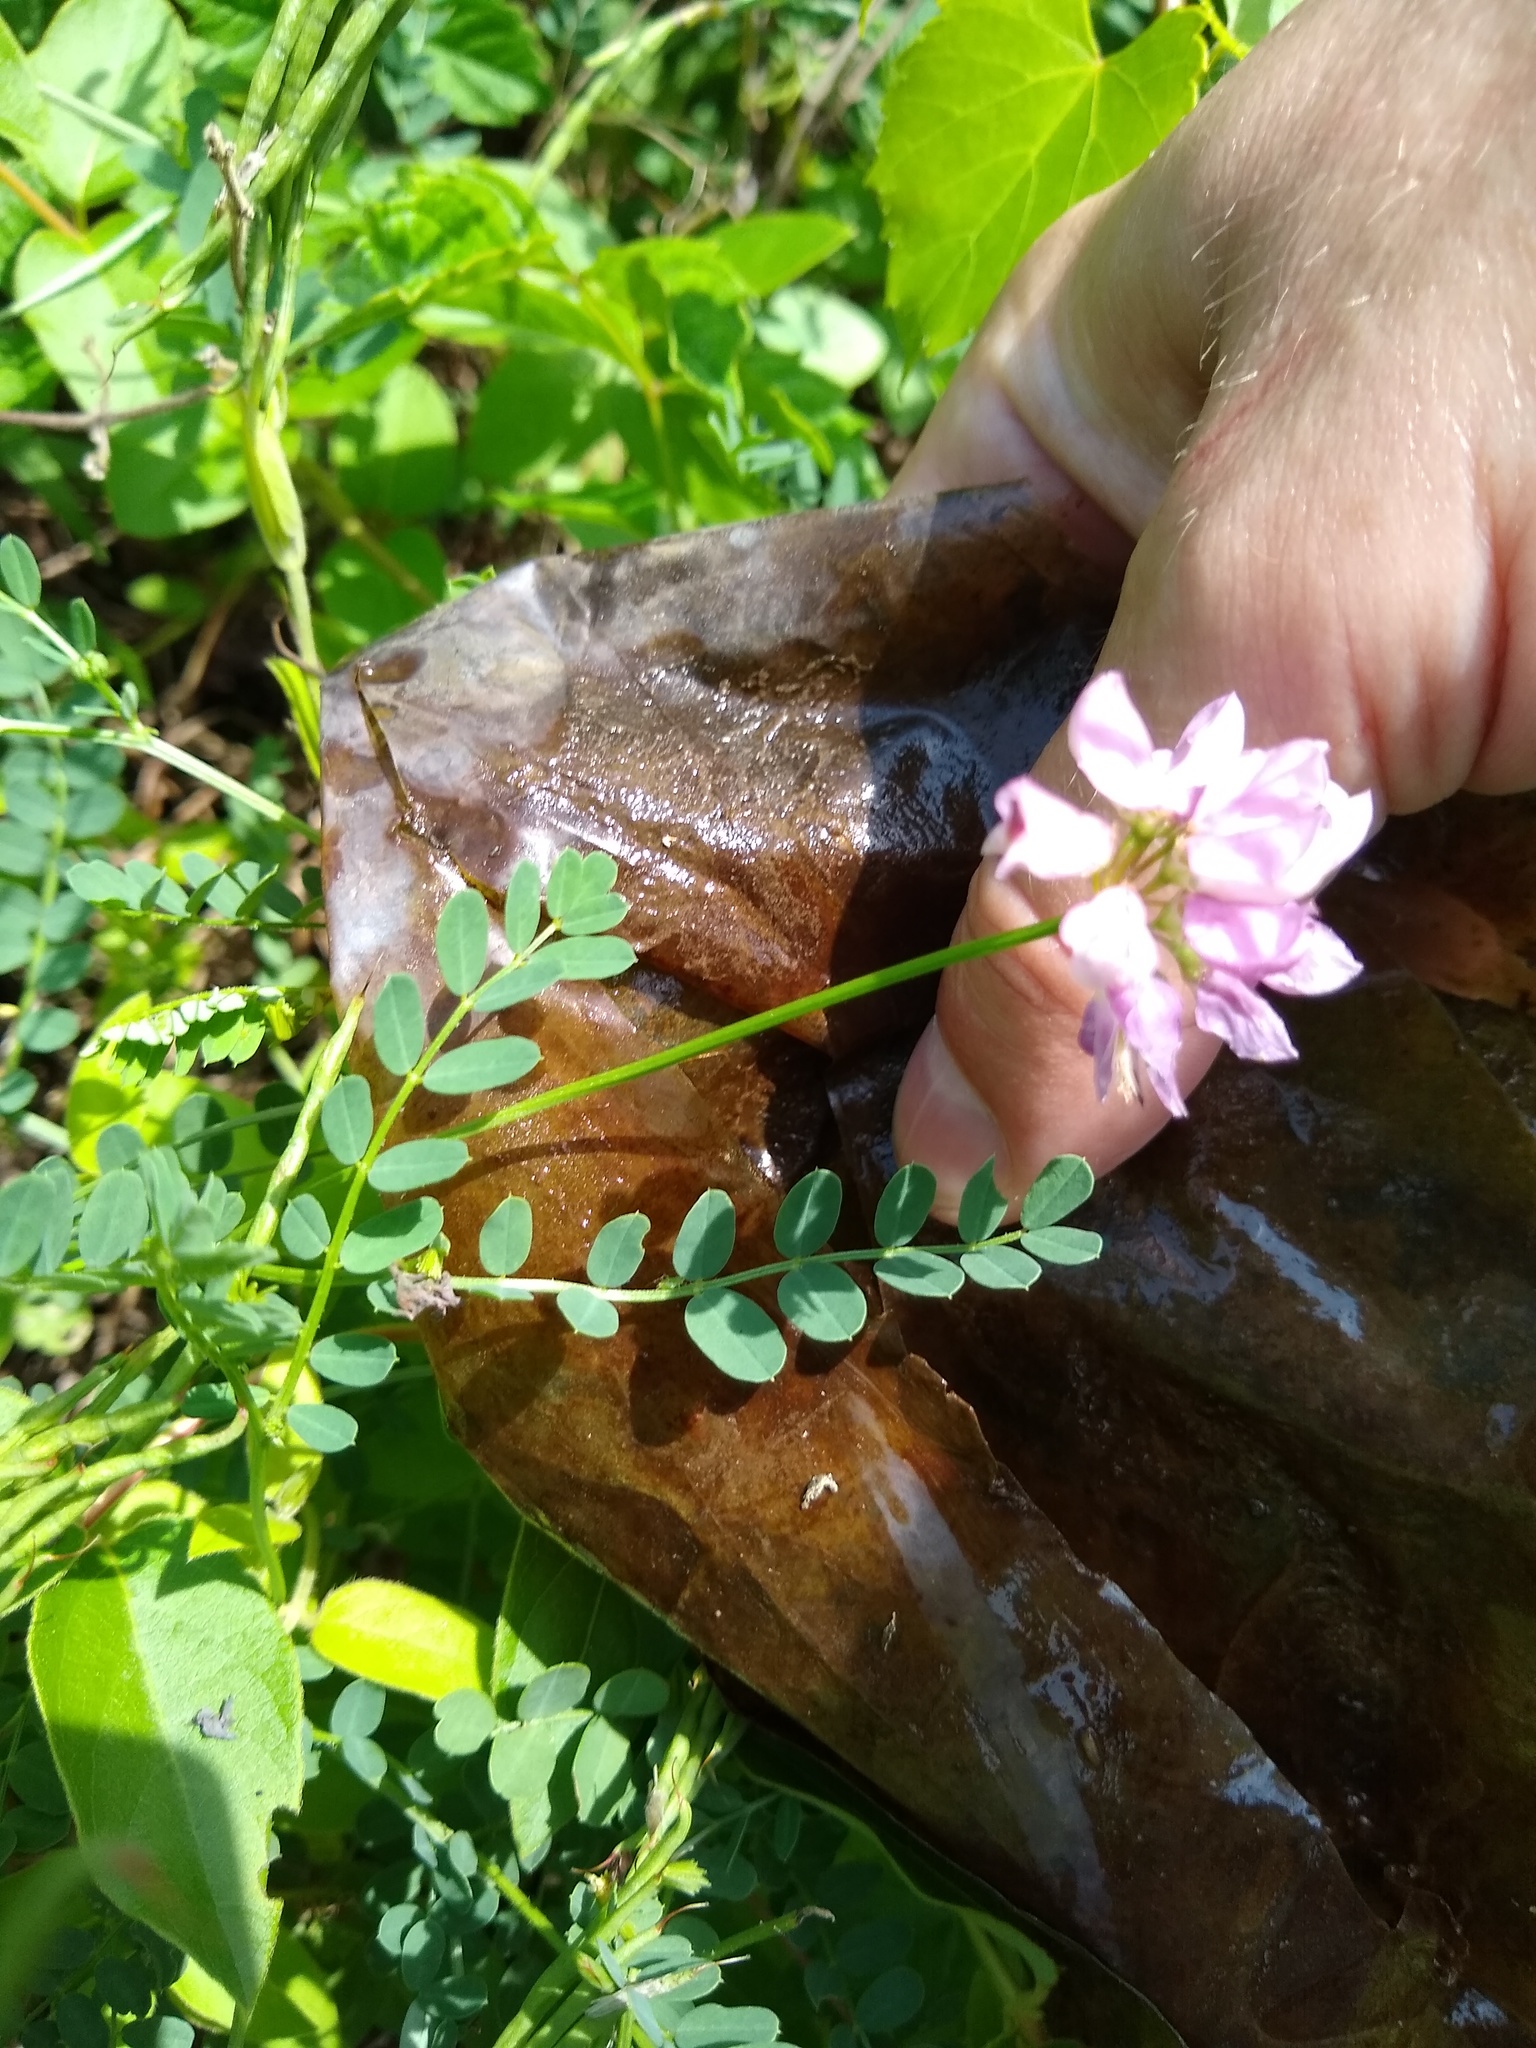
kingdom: Plantae
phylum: Tracheophyta
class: Magnoliopsida
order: Fabales
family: Fabaceae
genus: Coronilla
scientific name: Coronilla varia
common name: Crownvetch
